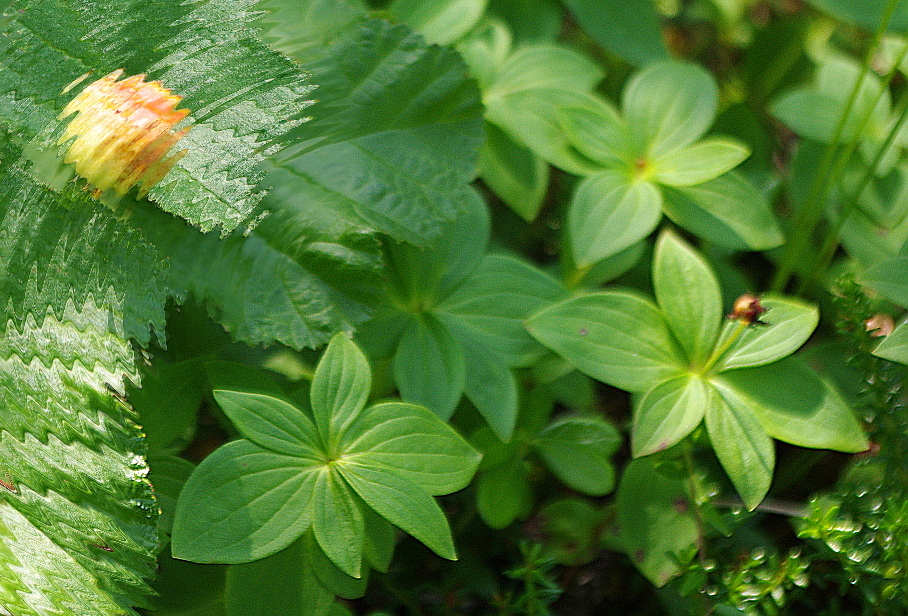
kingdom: Plantae
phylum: Tracheophyta
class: Magnoliopsida
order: Cornales
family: Cornaceae
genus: Cornus
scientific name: Cornus suecica
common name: Dwarf cornel
